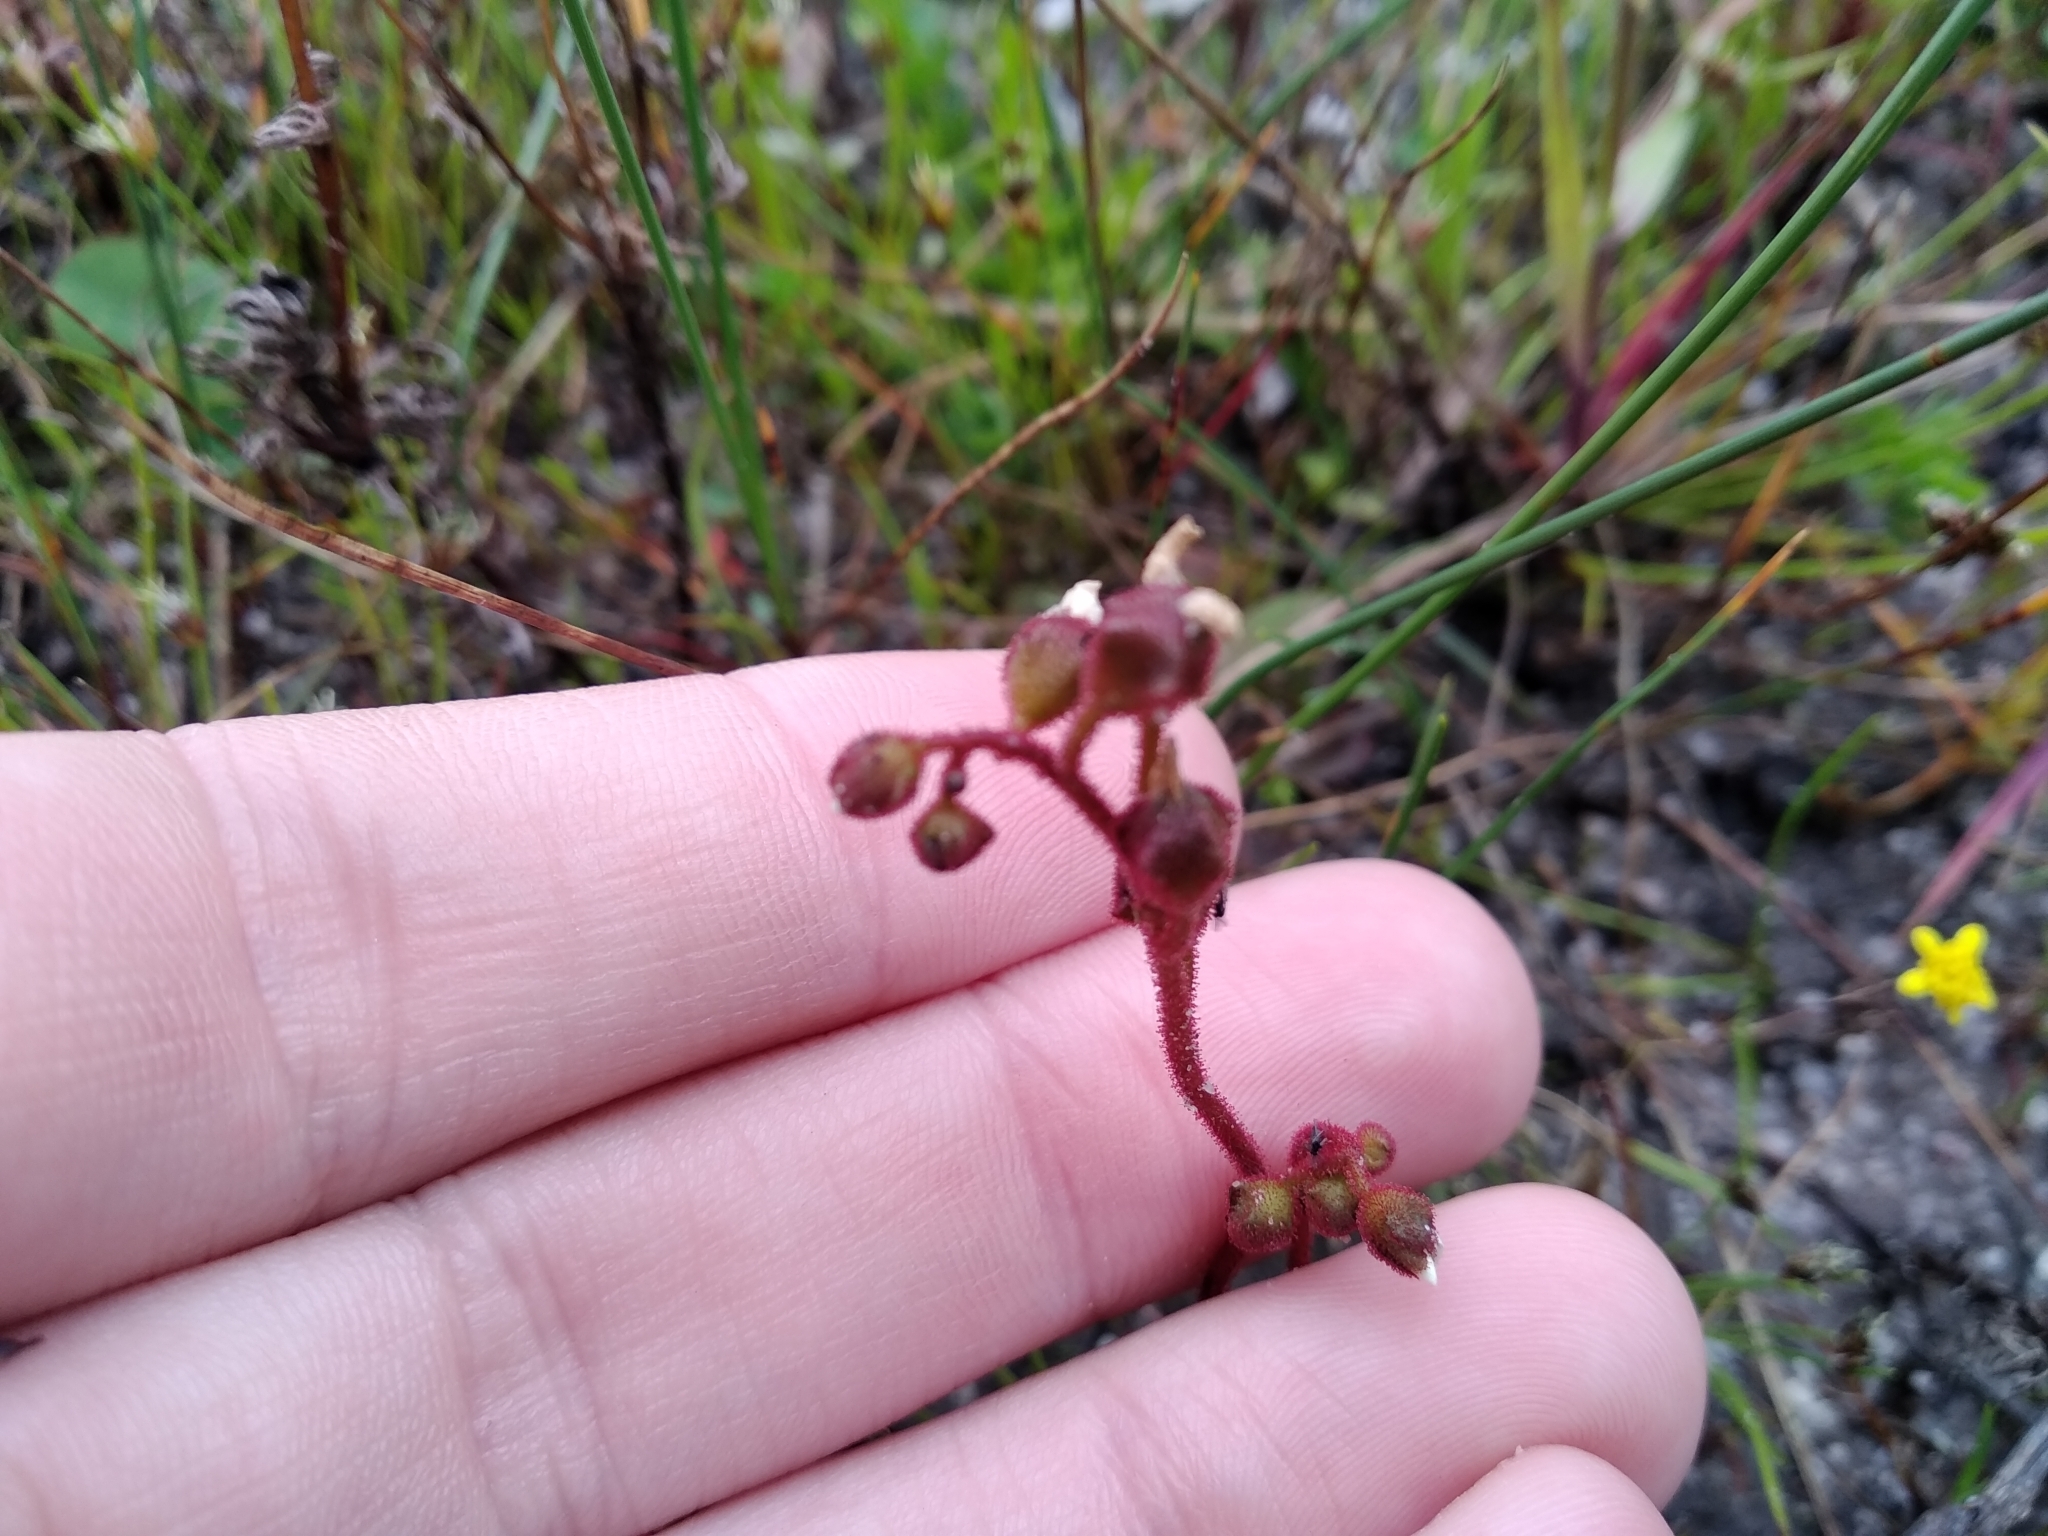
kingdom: Plantae
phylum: Tracheophyta
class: Magnoliopsida
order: Caryophyllales
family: Droseraceae
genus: Drosera
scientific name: Drosera trinervia
